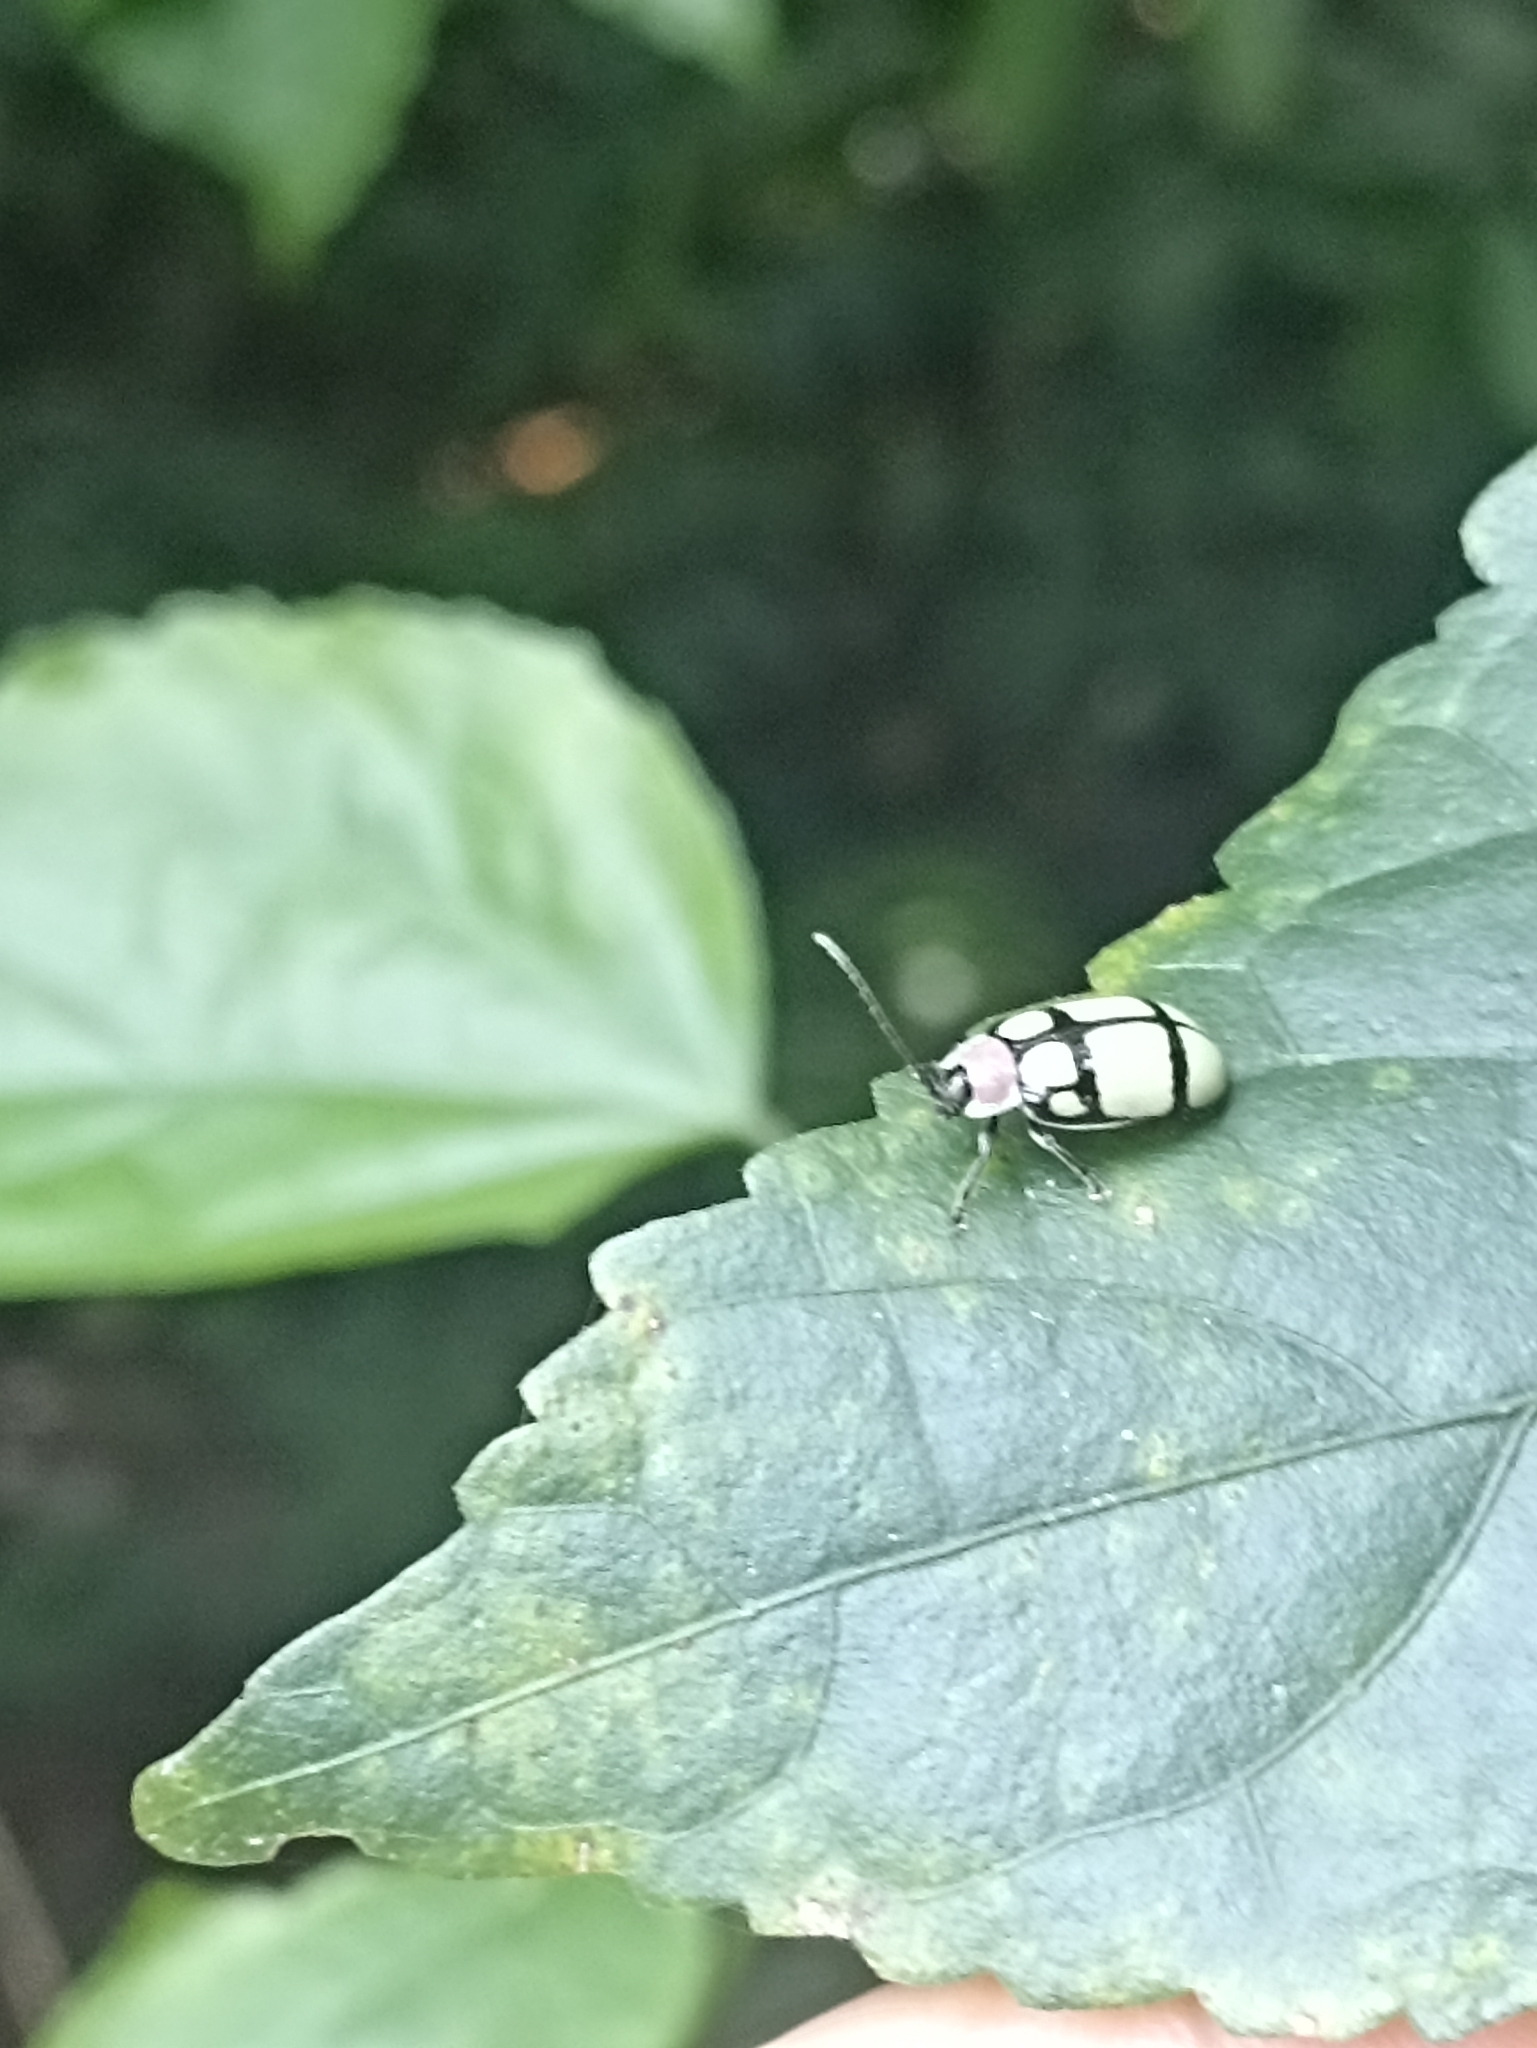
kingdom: Animalia
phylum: Arthropoda
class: Insecta
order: Coleoptera
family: Chrysomelidae
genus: Alagoasa
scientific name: Alagoasa
